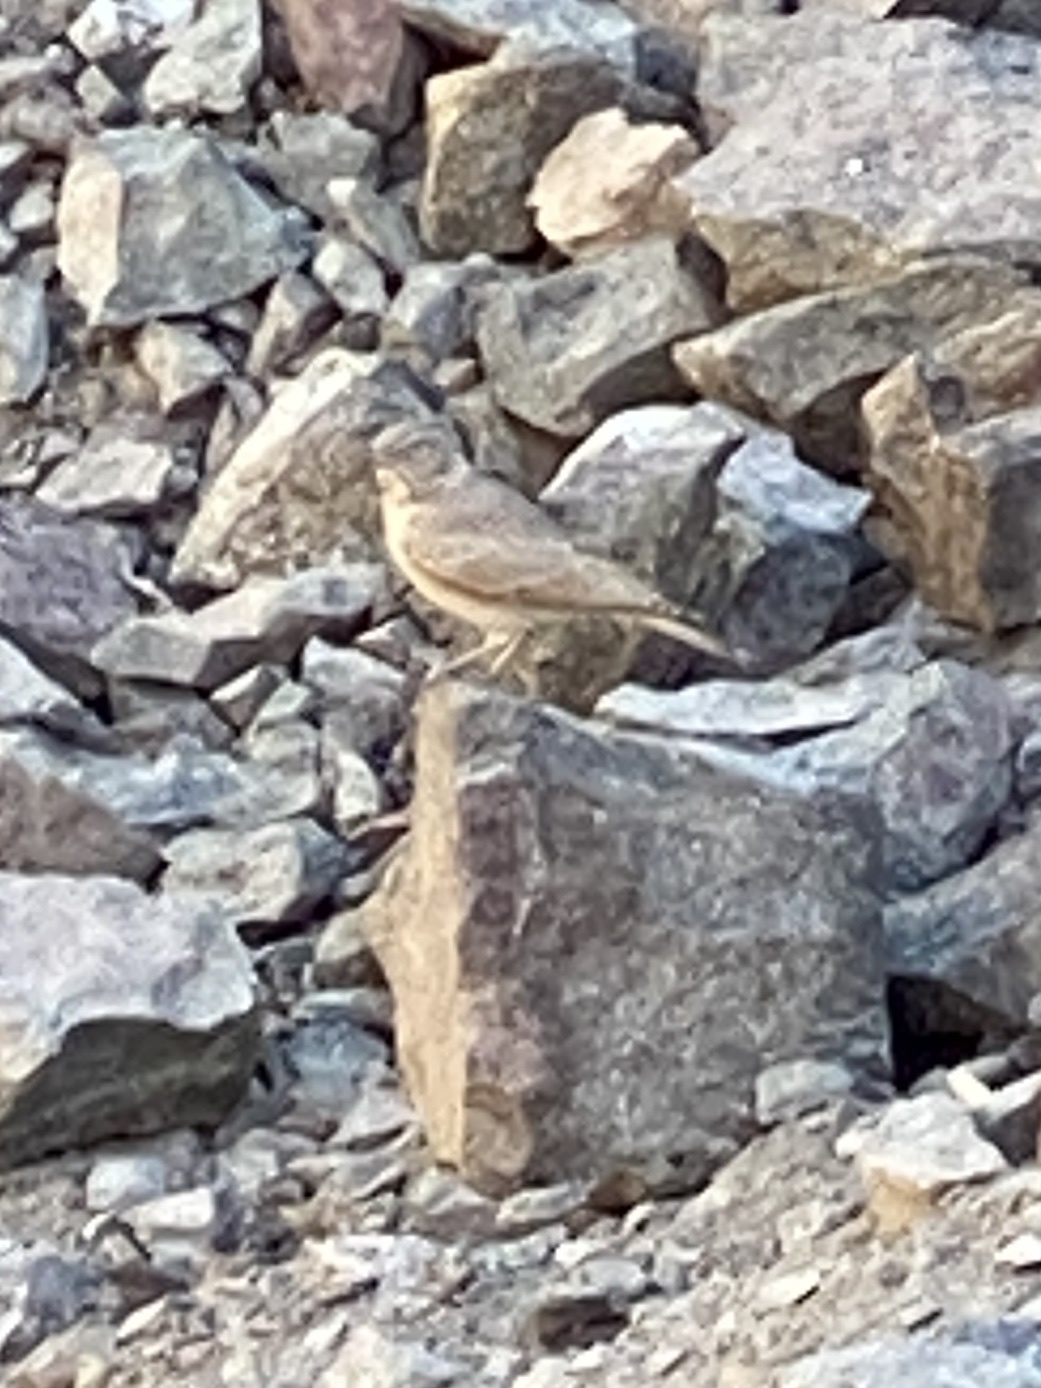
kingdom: Animalia
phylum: Chordata
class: Aves
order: Passeriformes
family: Alaudidae
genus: Ammomanes
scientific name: Ammomanes deserti
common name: Desert lark
